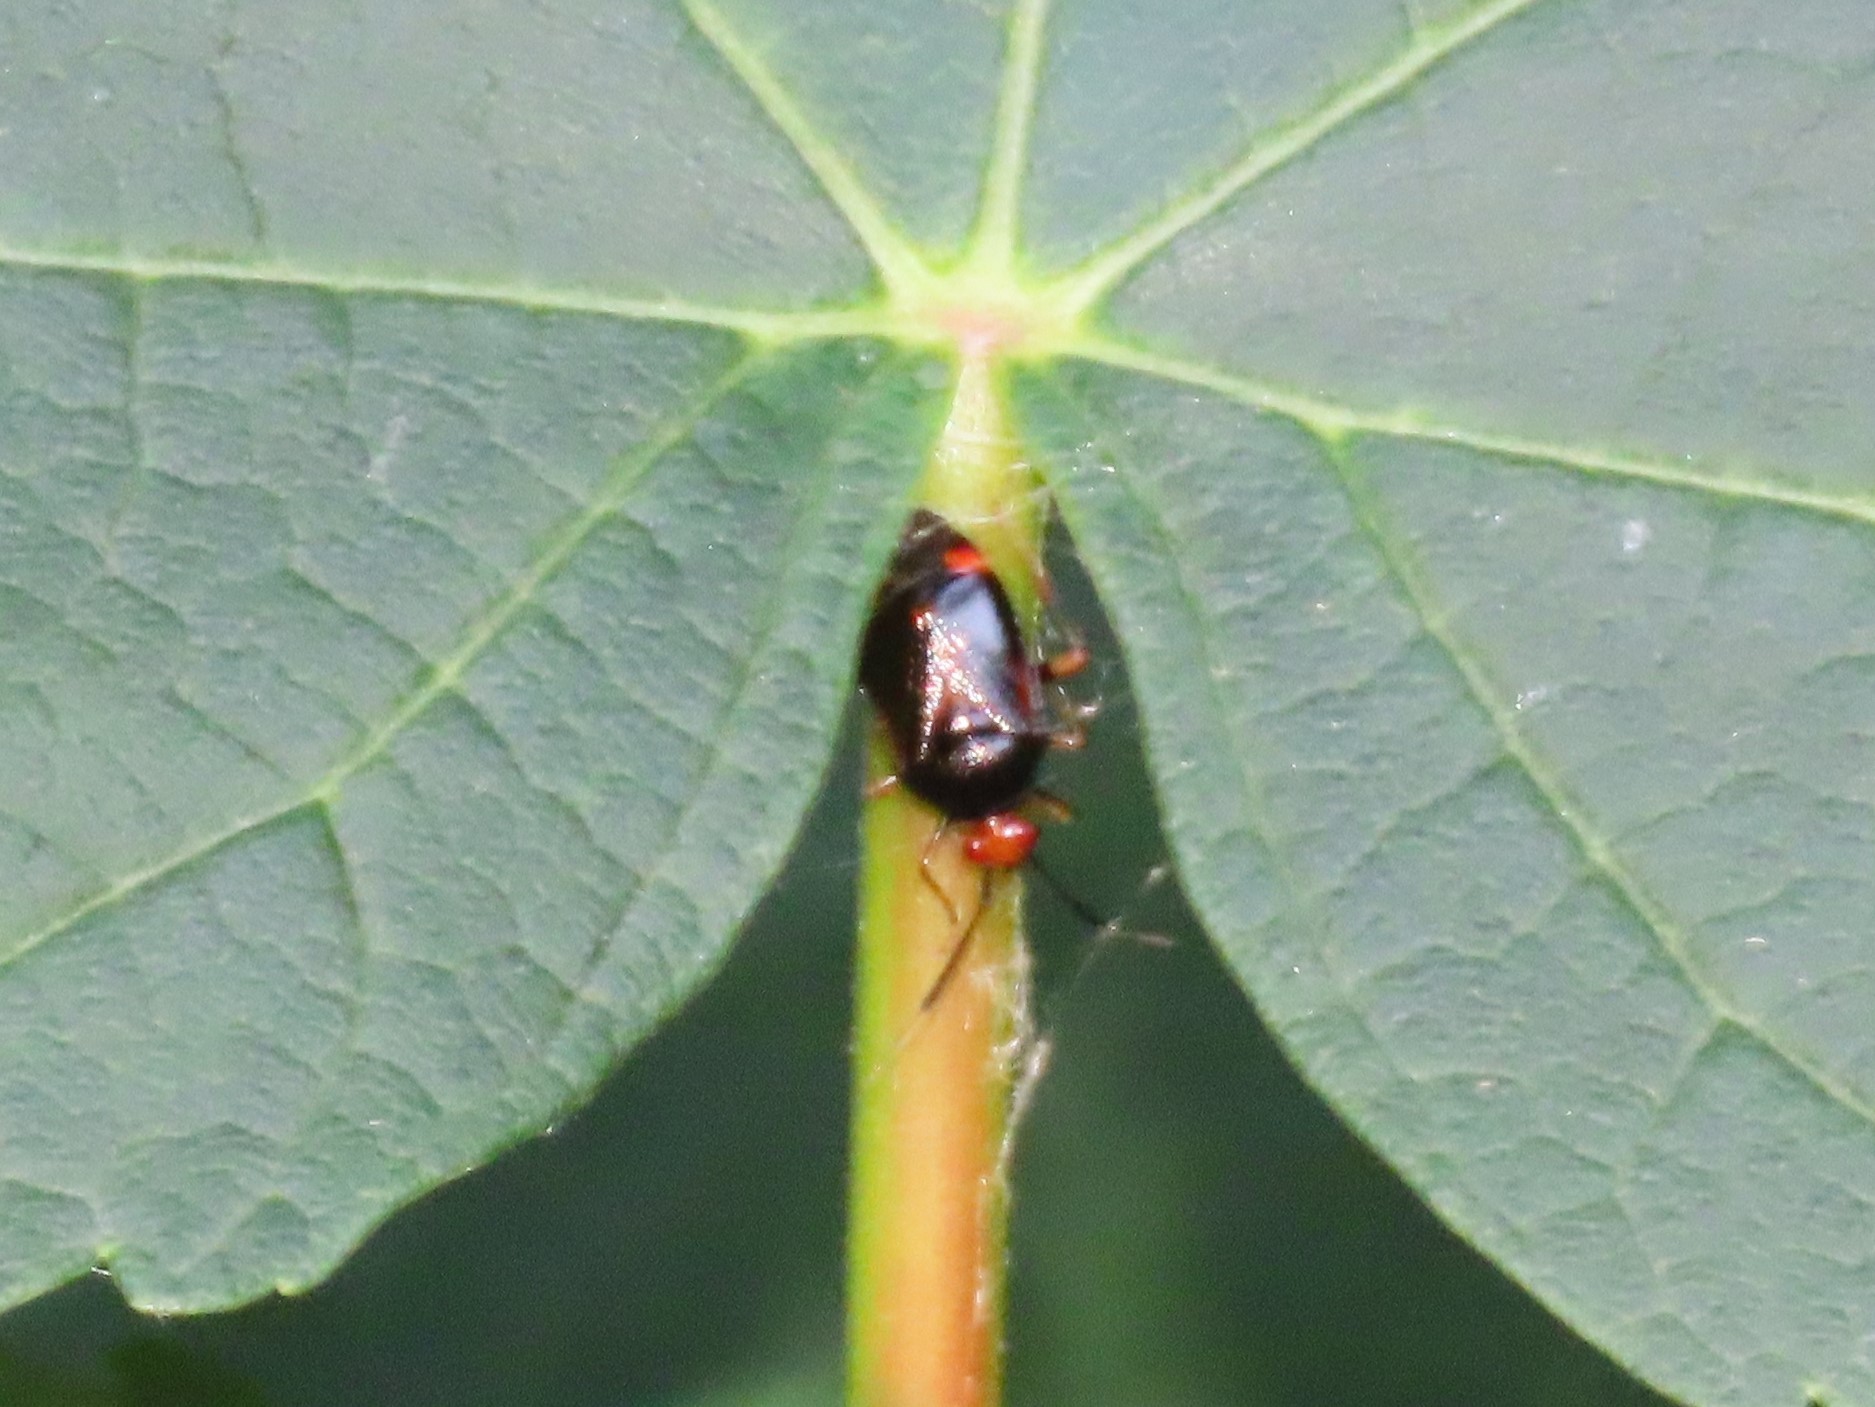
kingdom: Animalia
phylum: Arthropoda
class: Insecta
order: Hemiptera
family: Miridae
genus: Deraeocoris
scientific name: Deraeocoris ruber
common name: Plant bug
